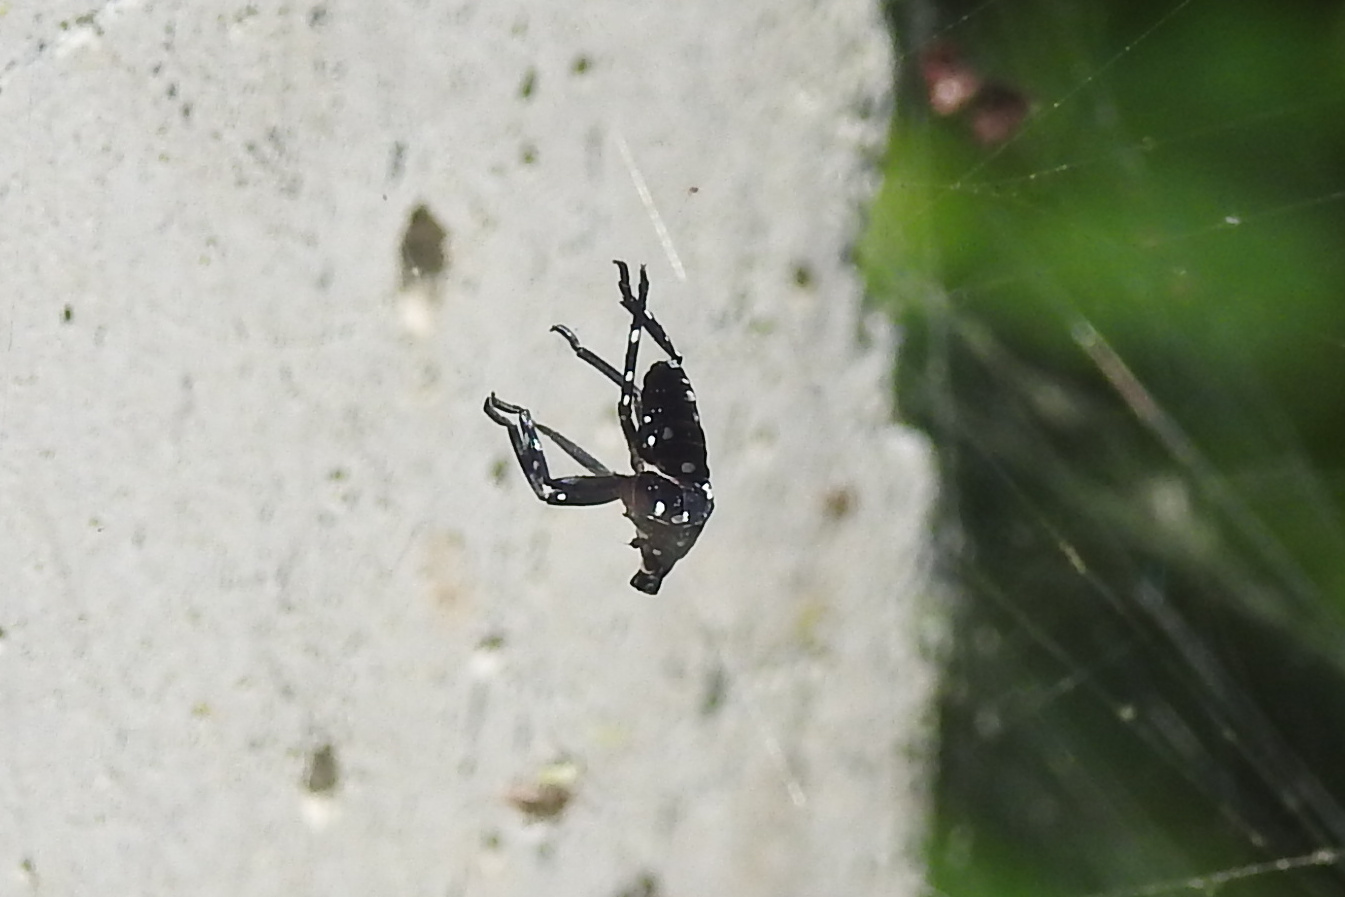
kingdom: Animalia
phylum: Arthropoda
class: Insecta
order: Hemiptera
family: Fulgoridae
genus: Lycorma
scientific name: Lycorma delicatula
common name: Spotted lanternfly
